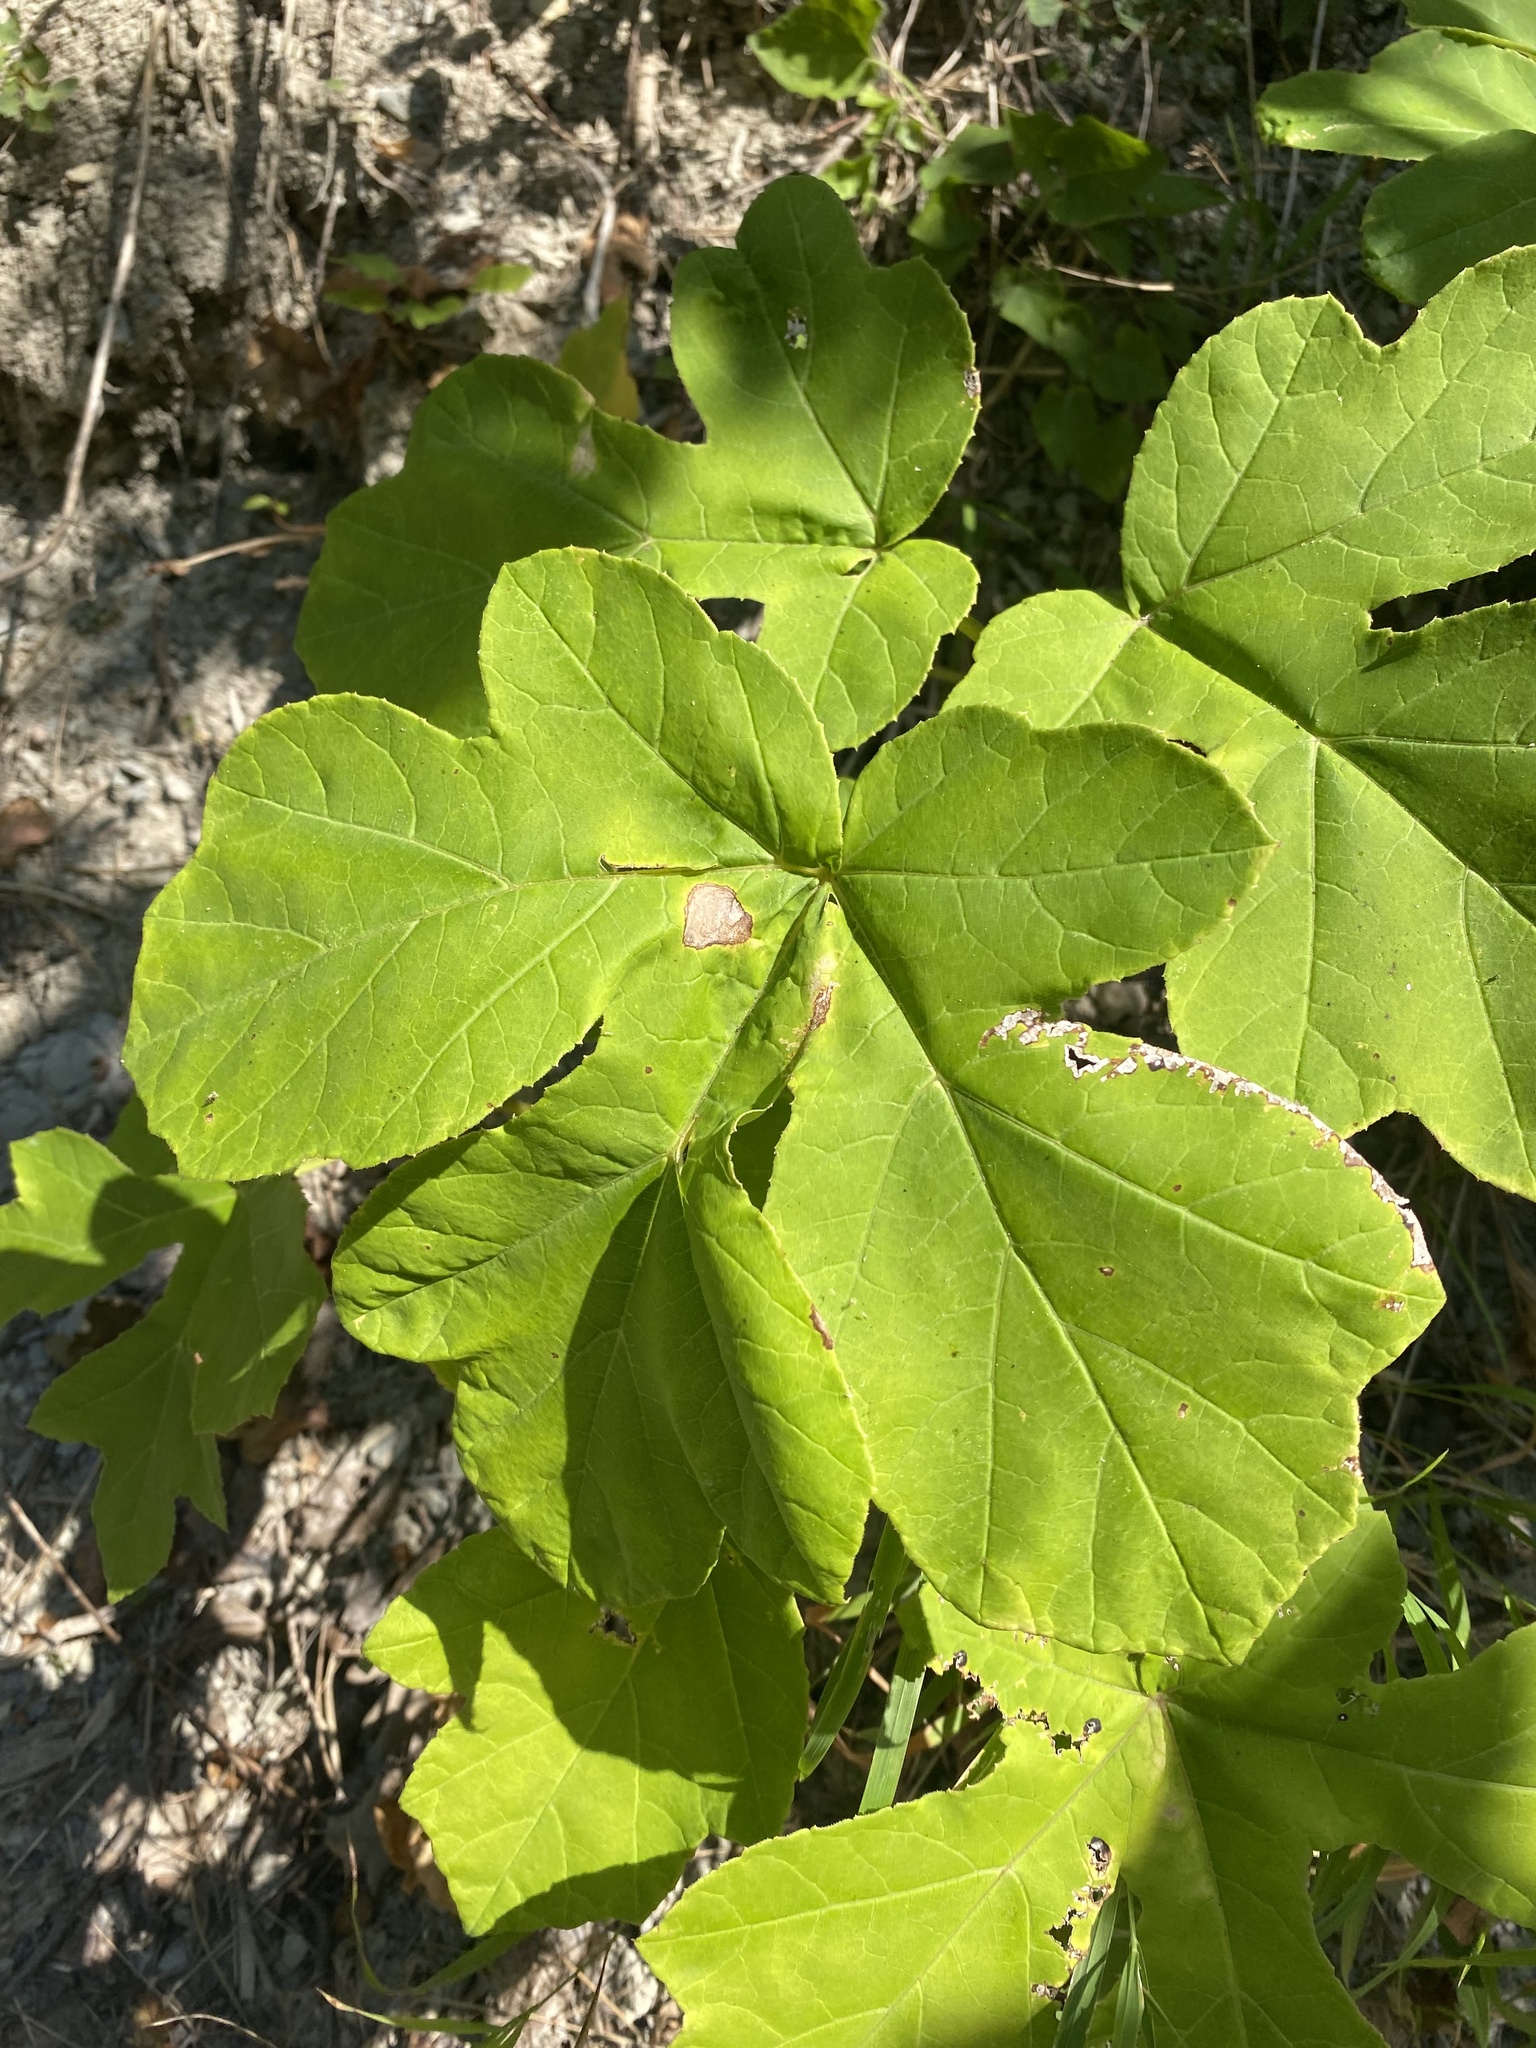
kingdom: Plantae
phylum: Tracheophyta
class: Magnoliopsida
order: Rosales
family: Moraceae
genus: Ficus
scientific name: Ficus carica
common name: Fig
